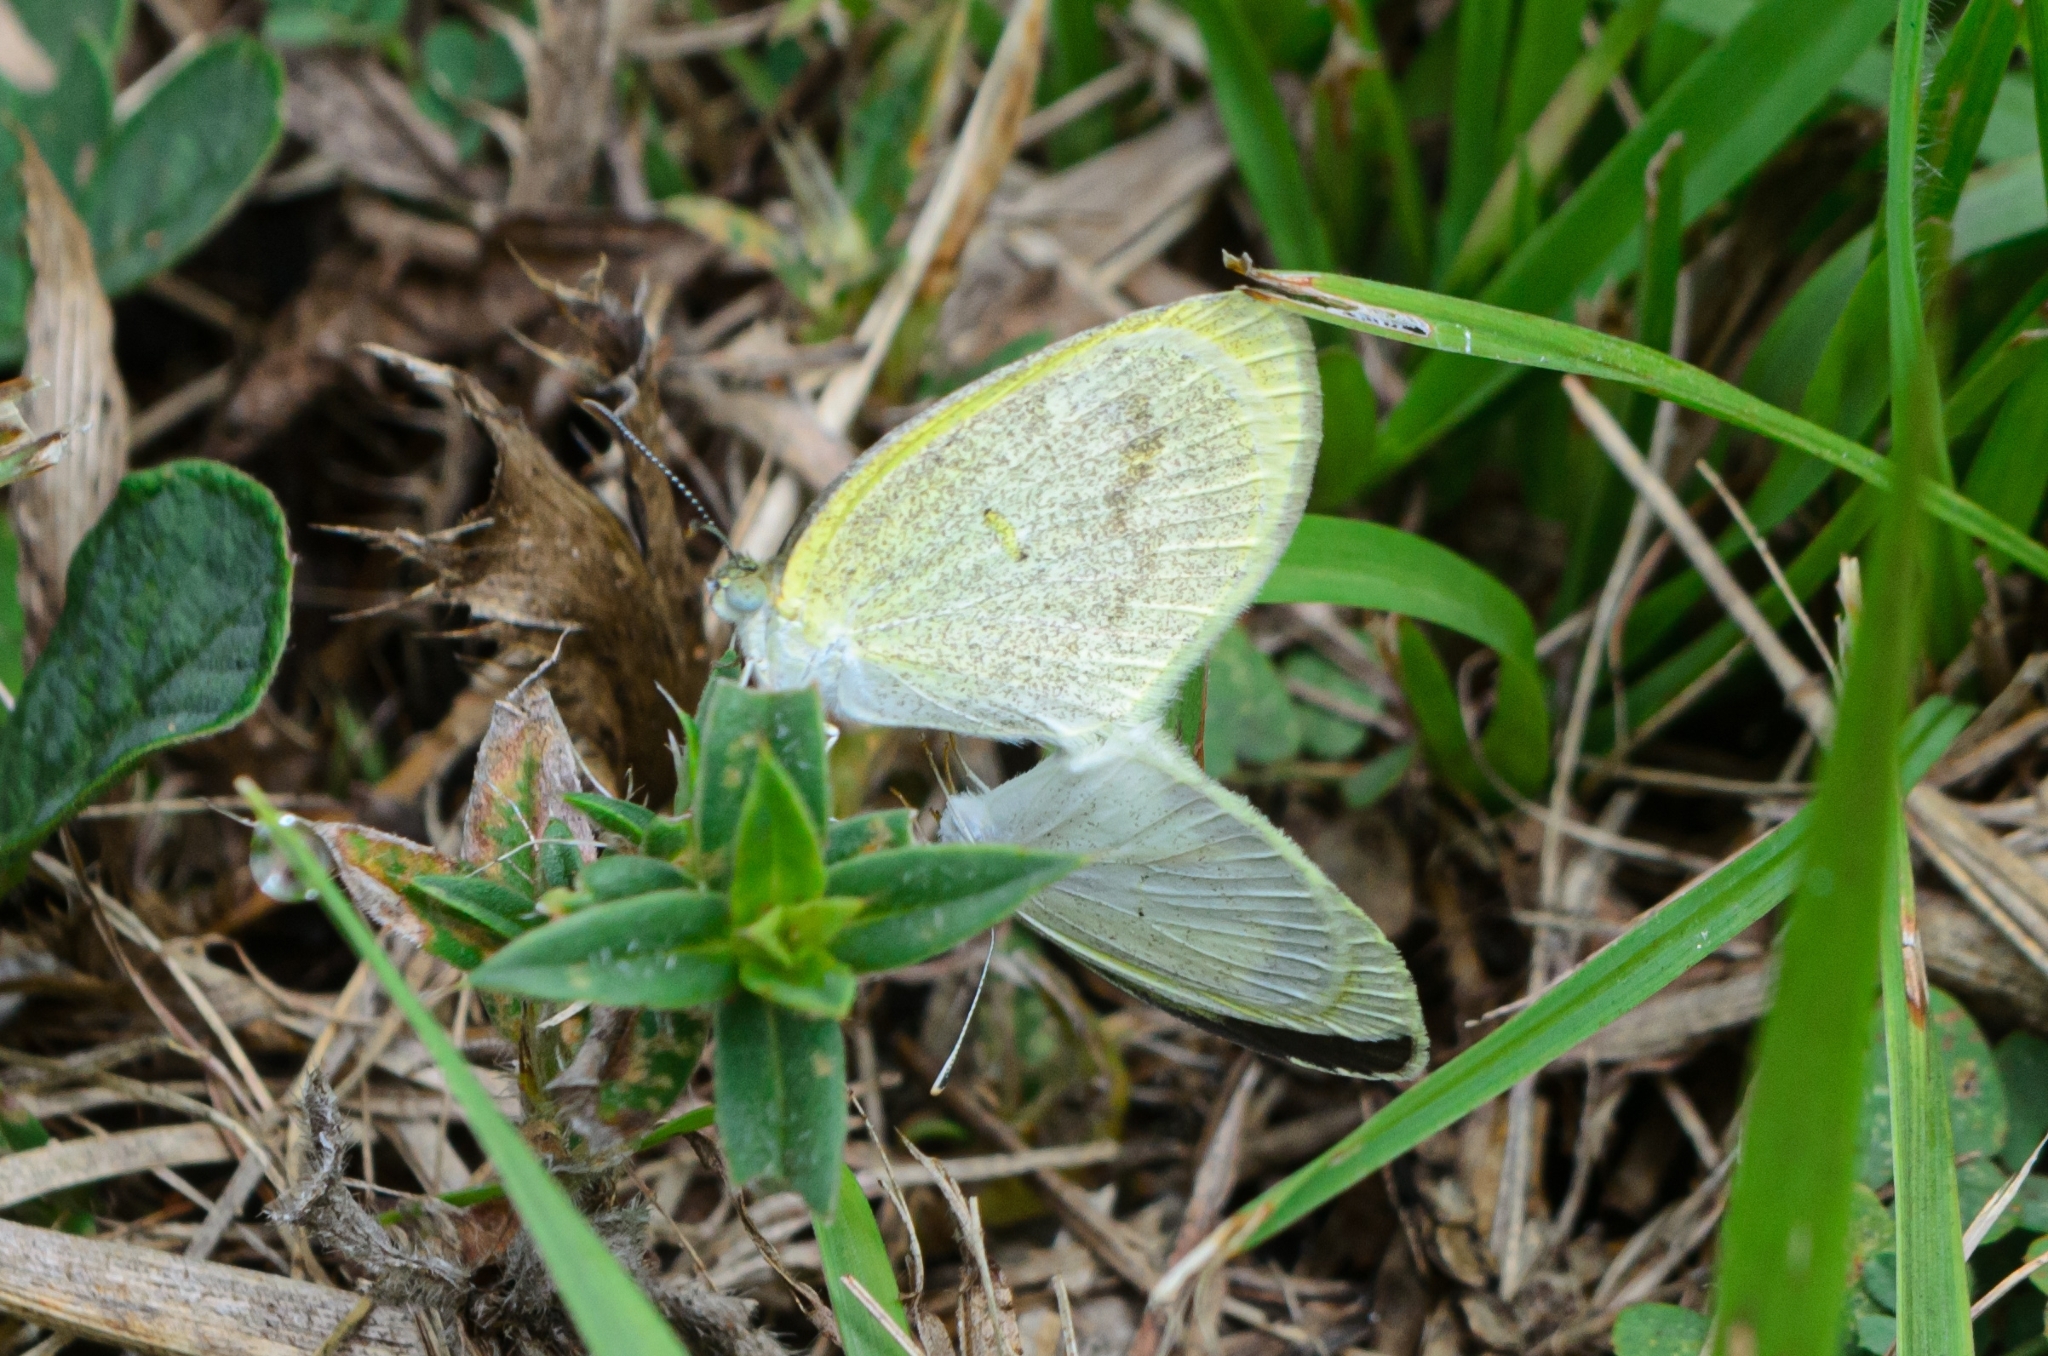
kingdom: Animalia
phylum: Arthropoda
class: Insecta
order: Lepidoptera
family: Pieridae
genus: Eurema
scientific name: Eurema elathea
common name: Banded yellow
